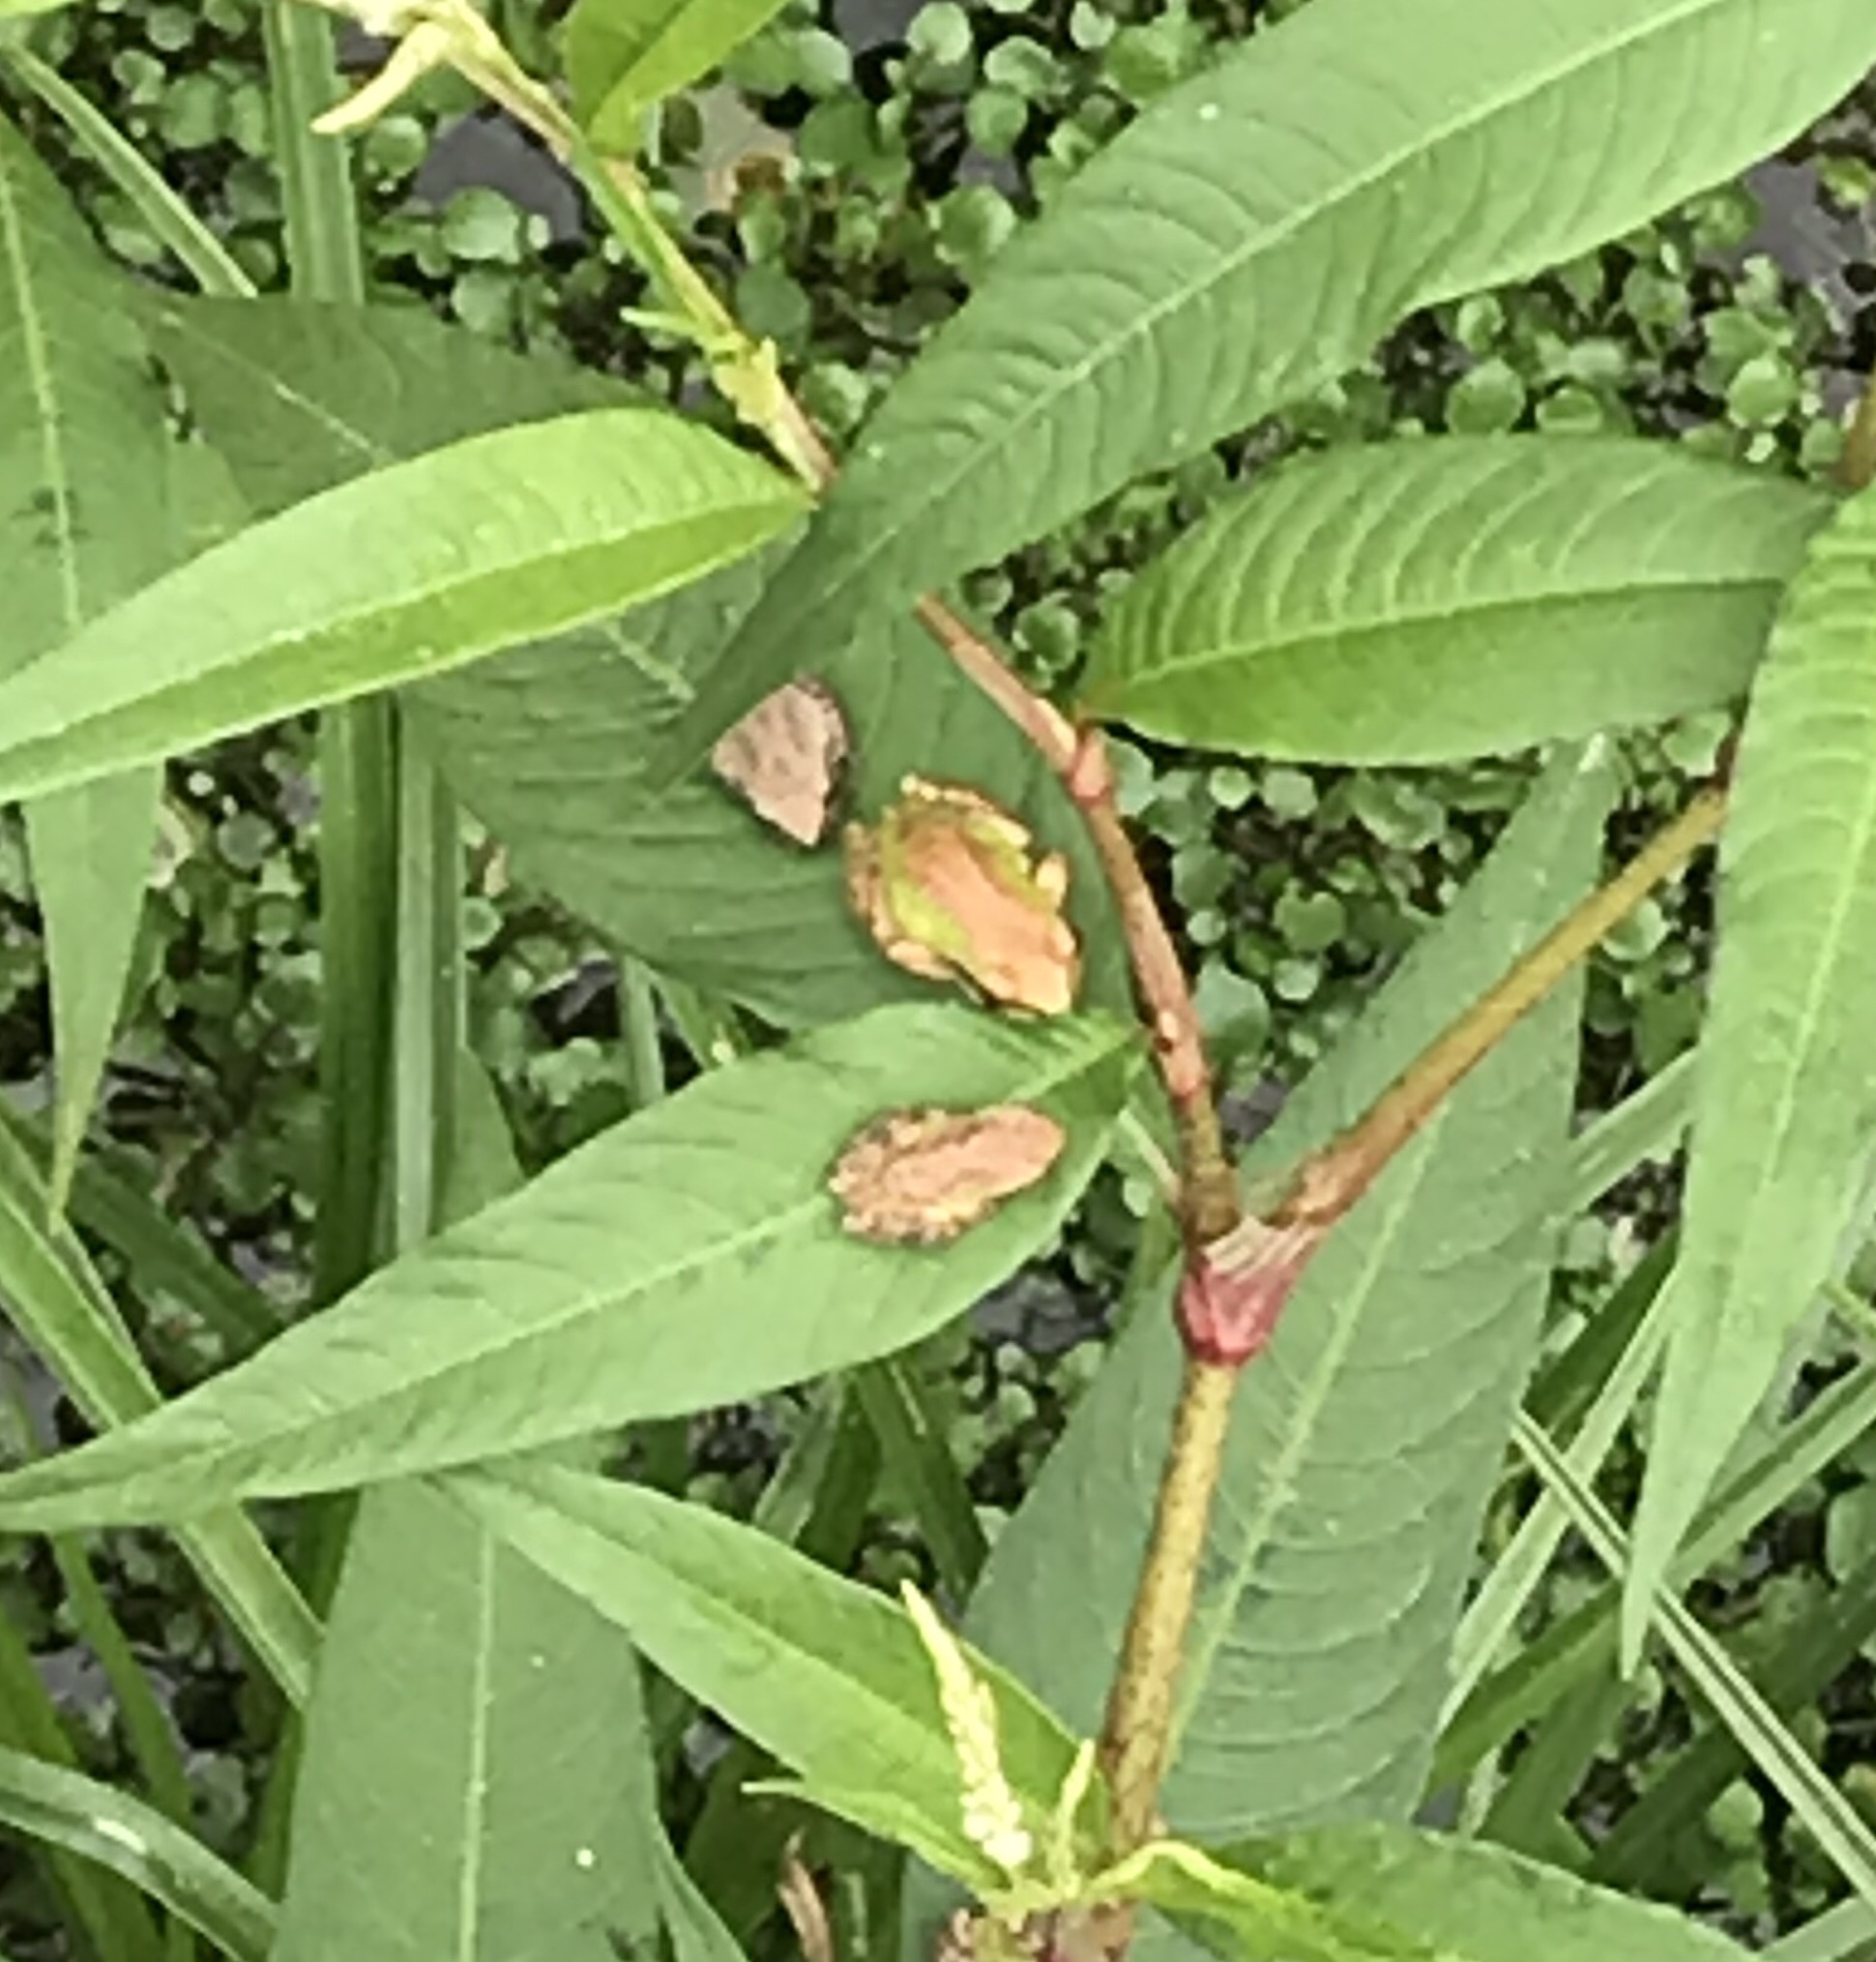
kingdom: Animalia
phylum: Chordata
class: Amphibia
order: Anura
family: Hylidae
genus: Pseudacris
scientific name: Pseudacris regilla
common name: Pacific chorus frog
